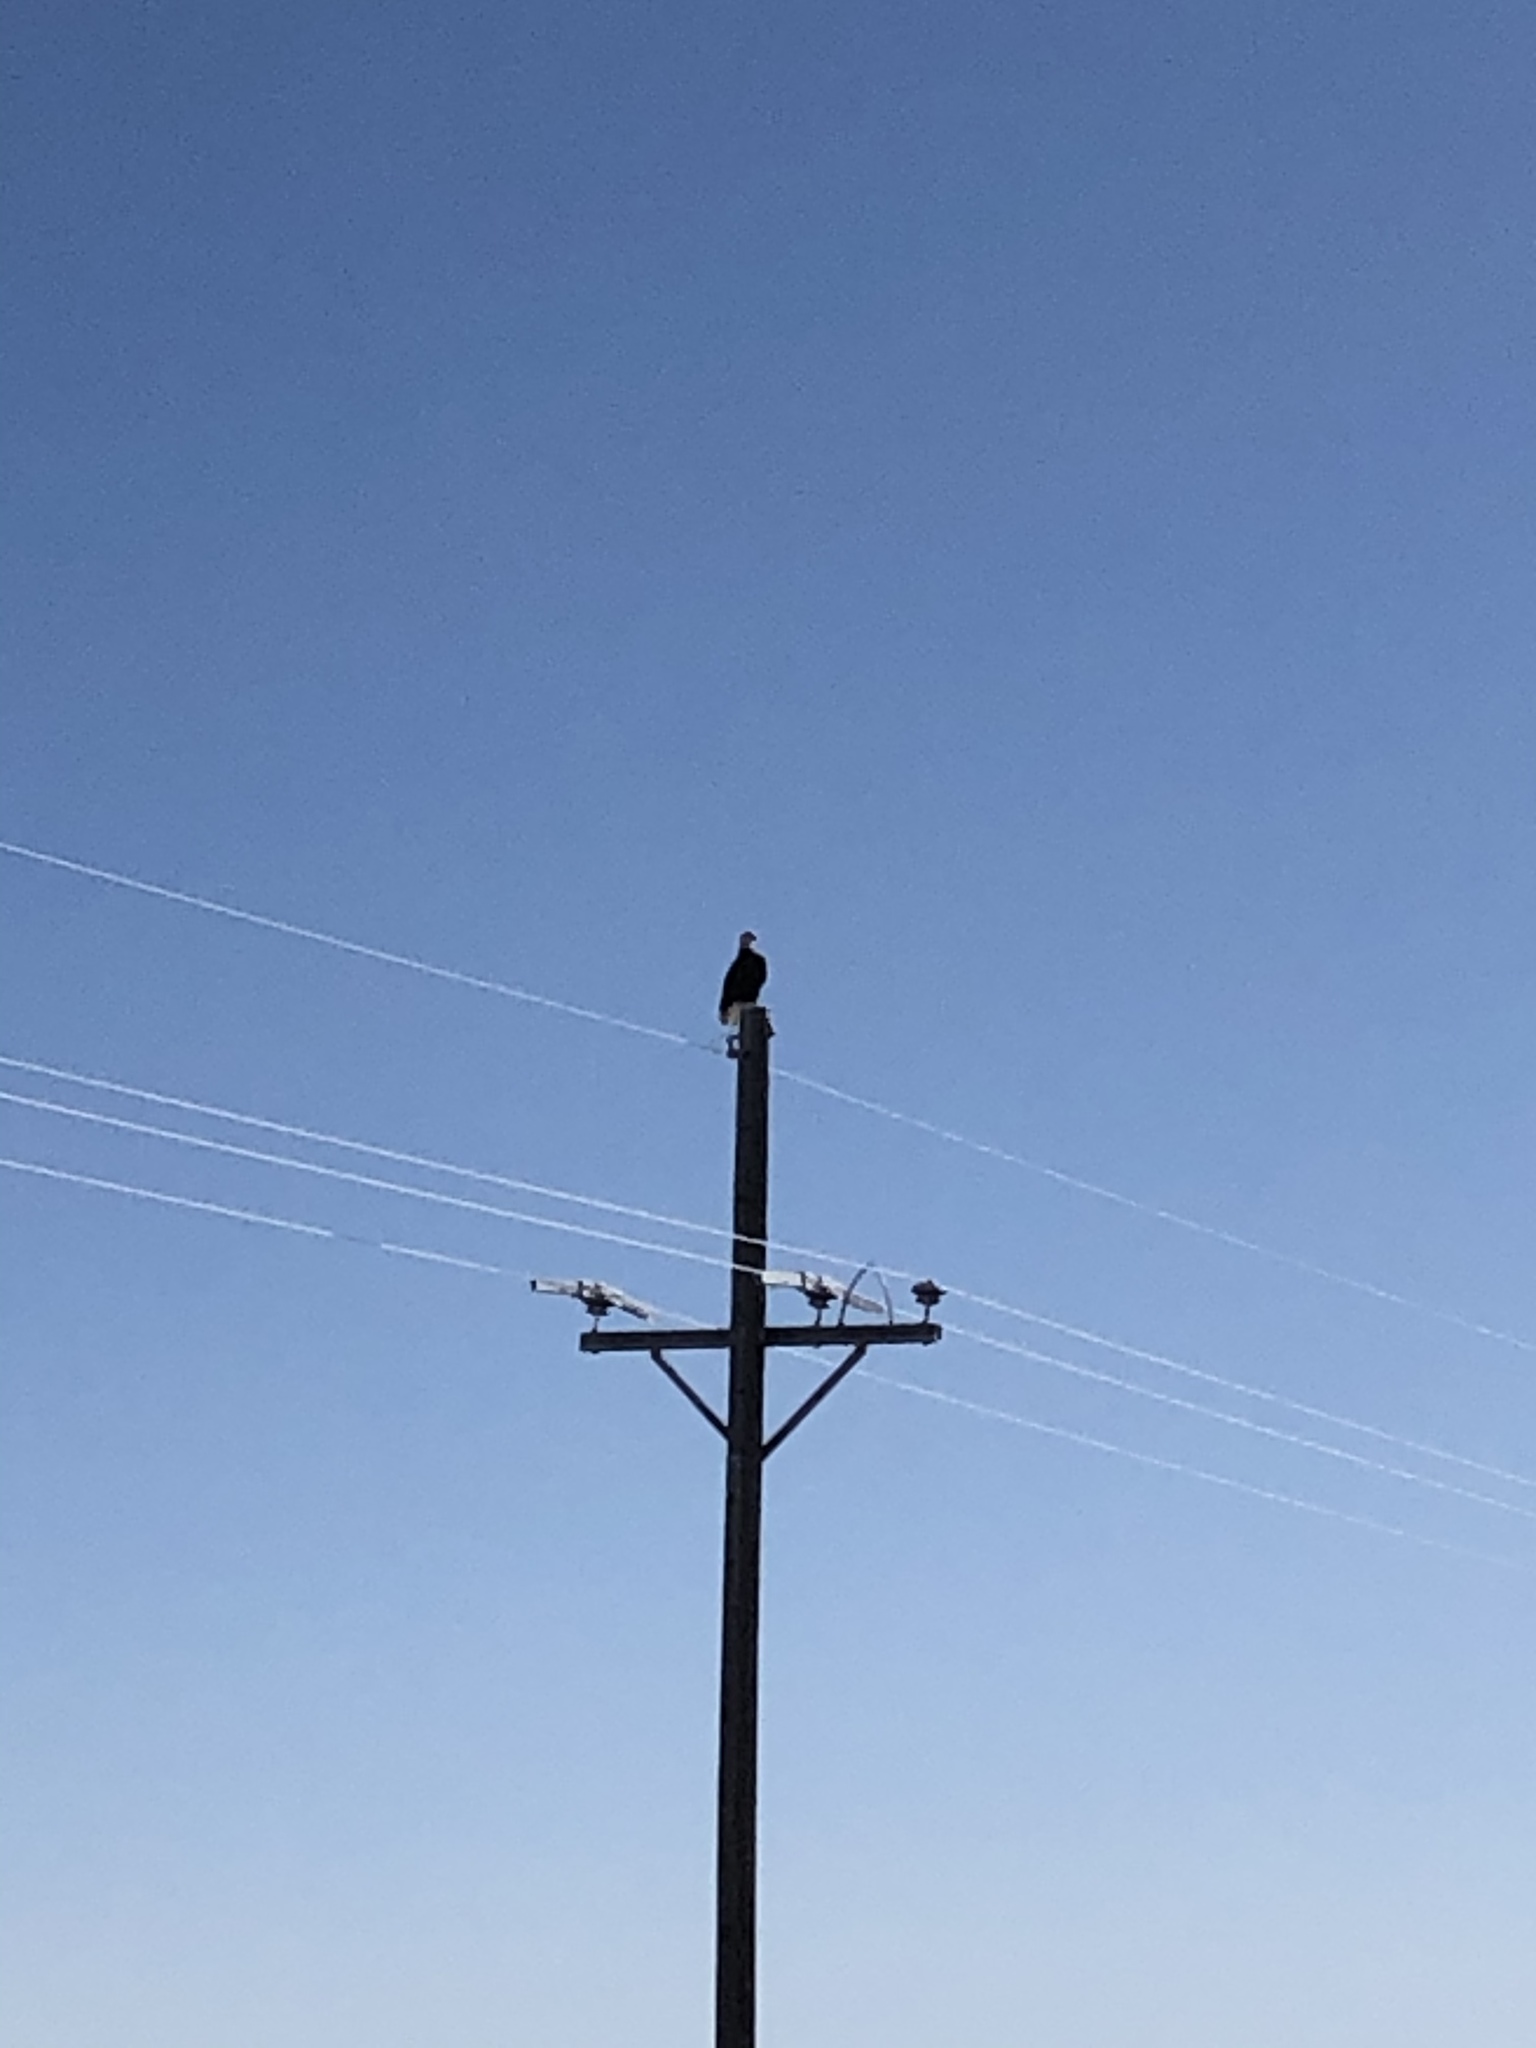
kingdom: Animalia
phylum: Chordata
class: Aves
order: Accipitriformes
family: Accipitridae
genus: Haliaeetus
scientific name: Haliaeetus leucocephalus
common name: Bald eagle
